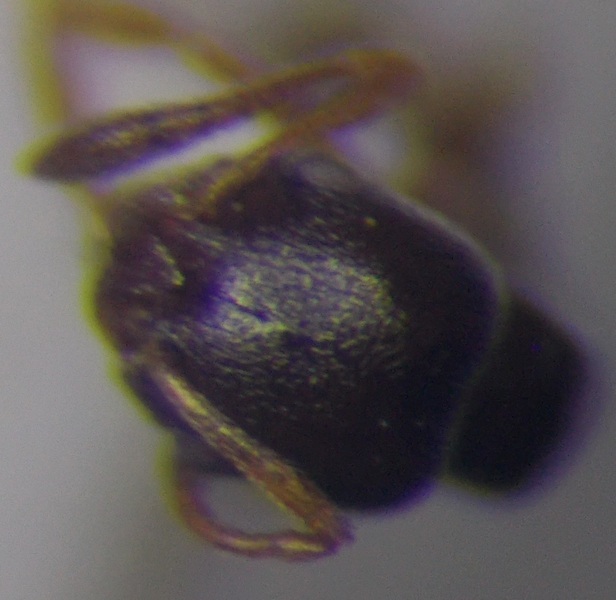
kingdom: Animalia
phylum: Arthropoda
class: Insecta
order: Hymenoptera
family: Formicidae
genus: Cardiocondyla
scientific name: Cardiocondyla stambuloffii
